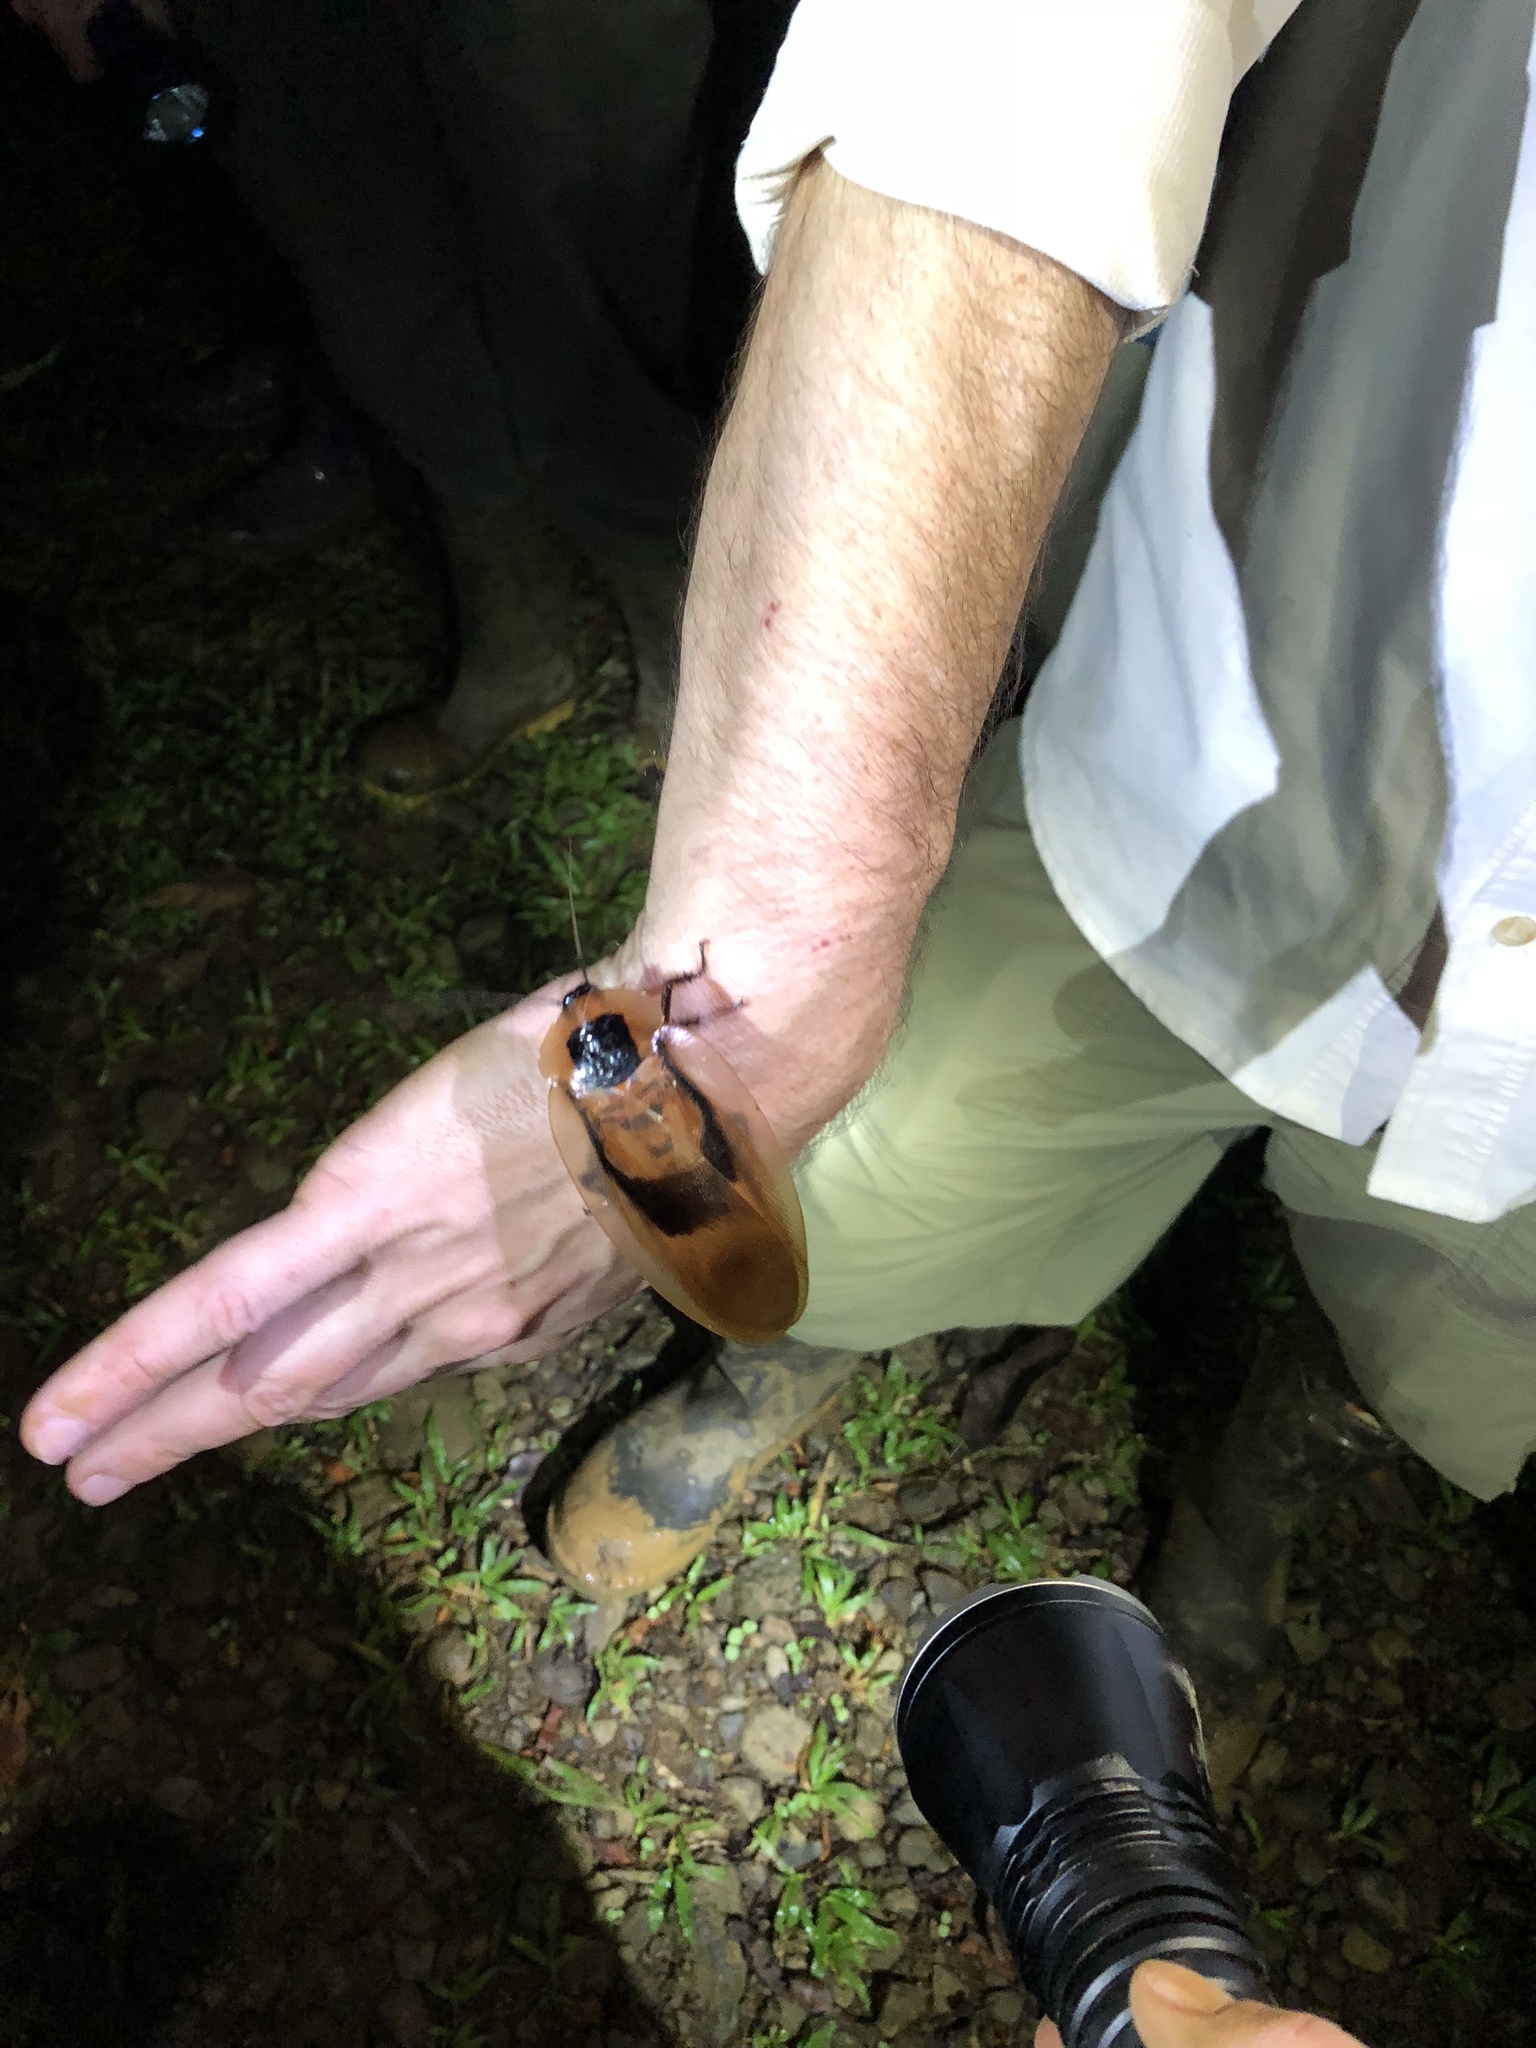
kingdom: Animalia
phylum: Arthropoda
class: Insecta
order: Blattodea
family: Blaberidae
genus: Blaberus
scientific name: Blaberus giganteus
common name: Giant cave cockroach
